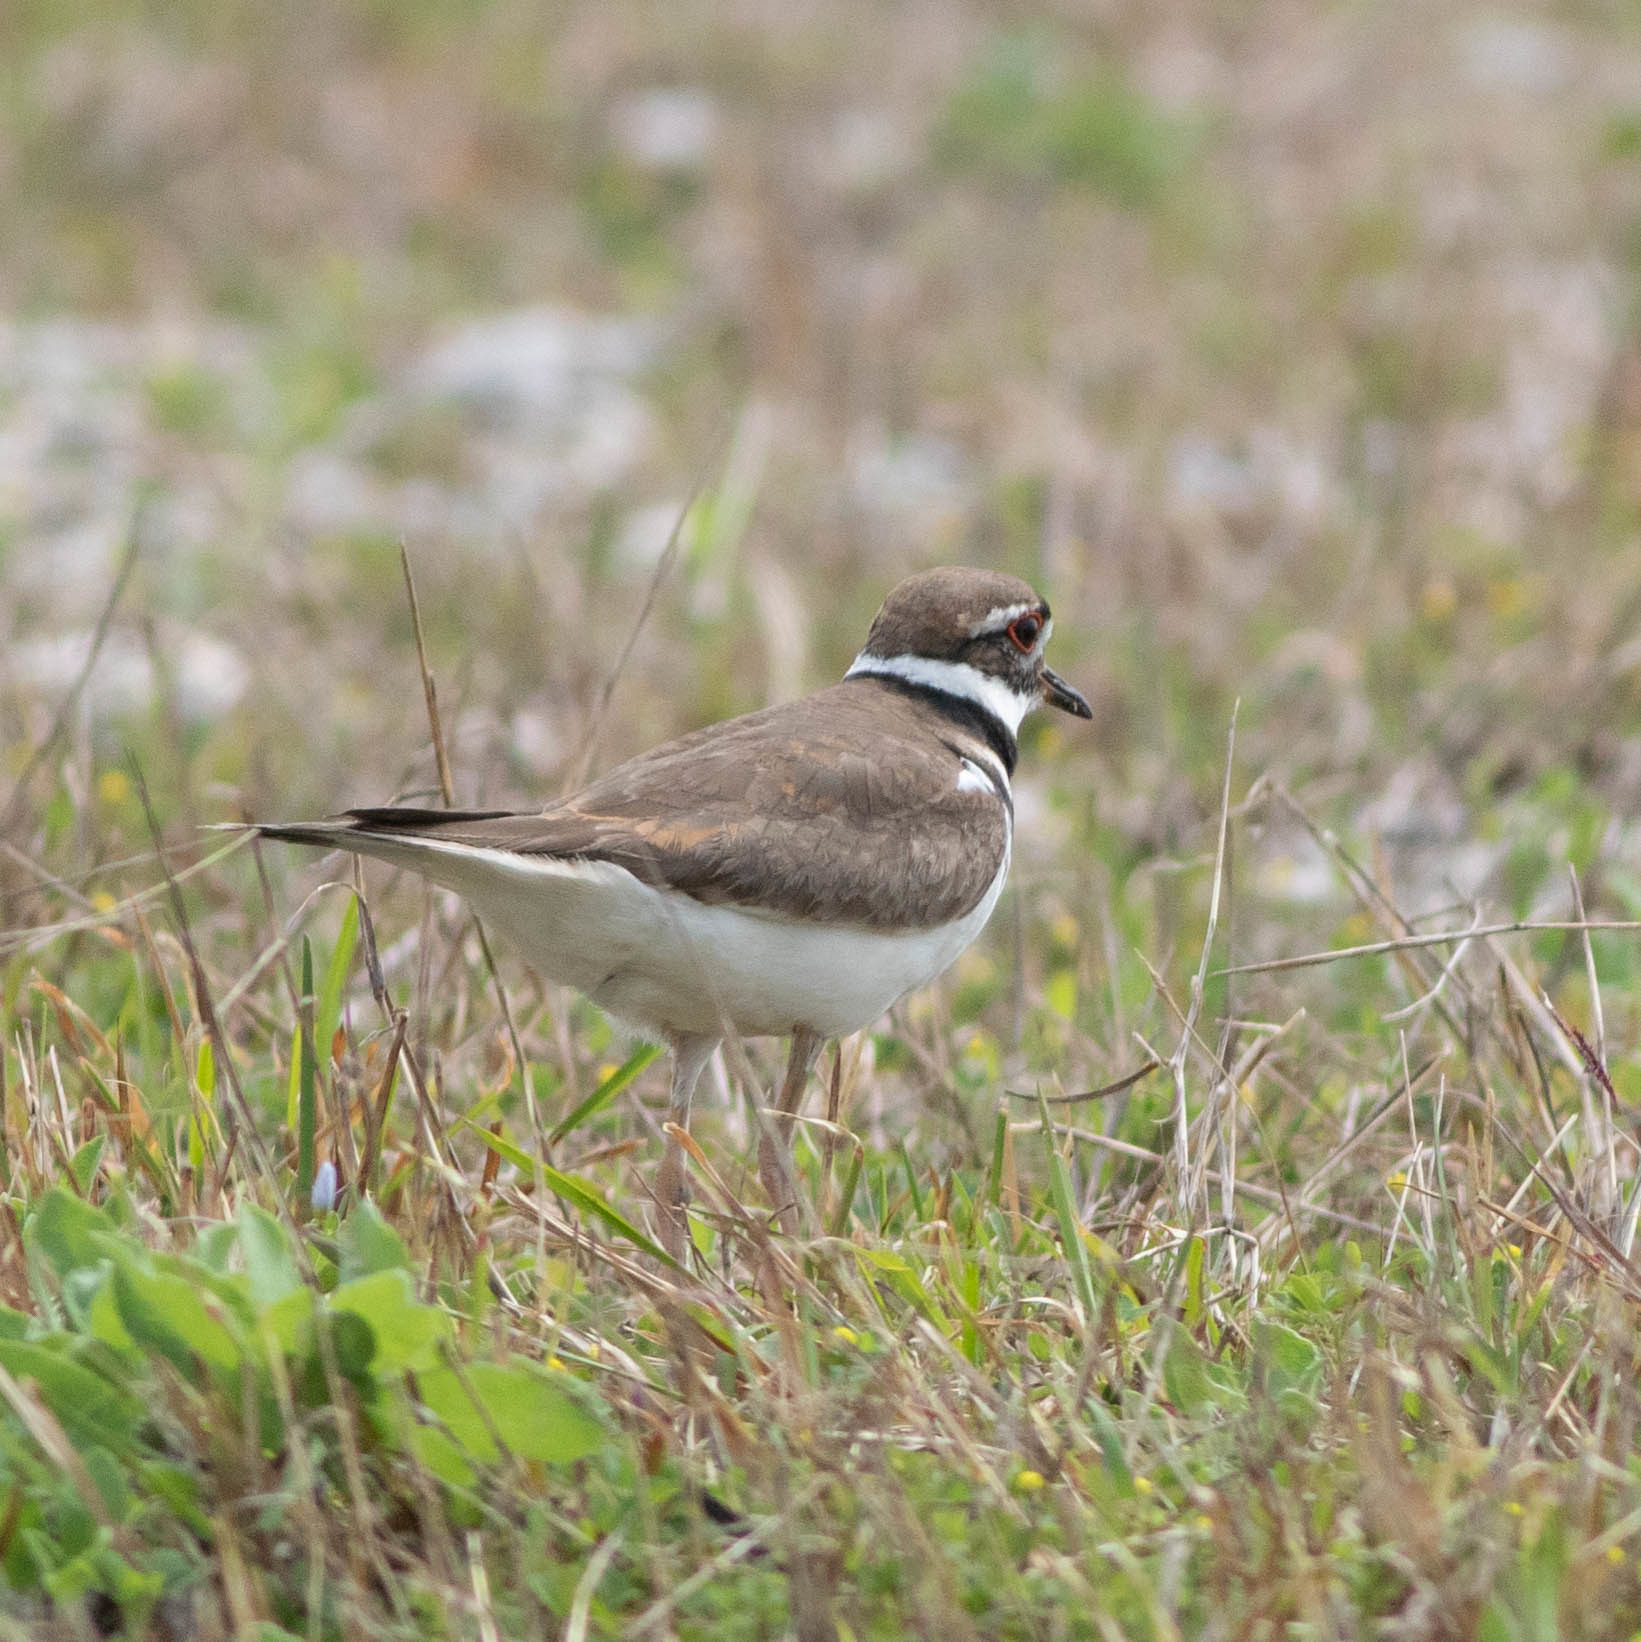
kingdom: Animalia
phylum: Chordata
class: Aves
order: Charadriiformes
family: Charadriidae
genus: Charadrius
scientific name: Charadrius vociferus
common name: Killdeer
